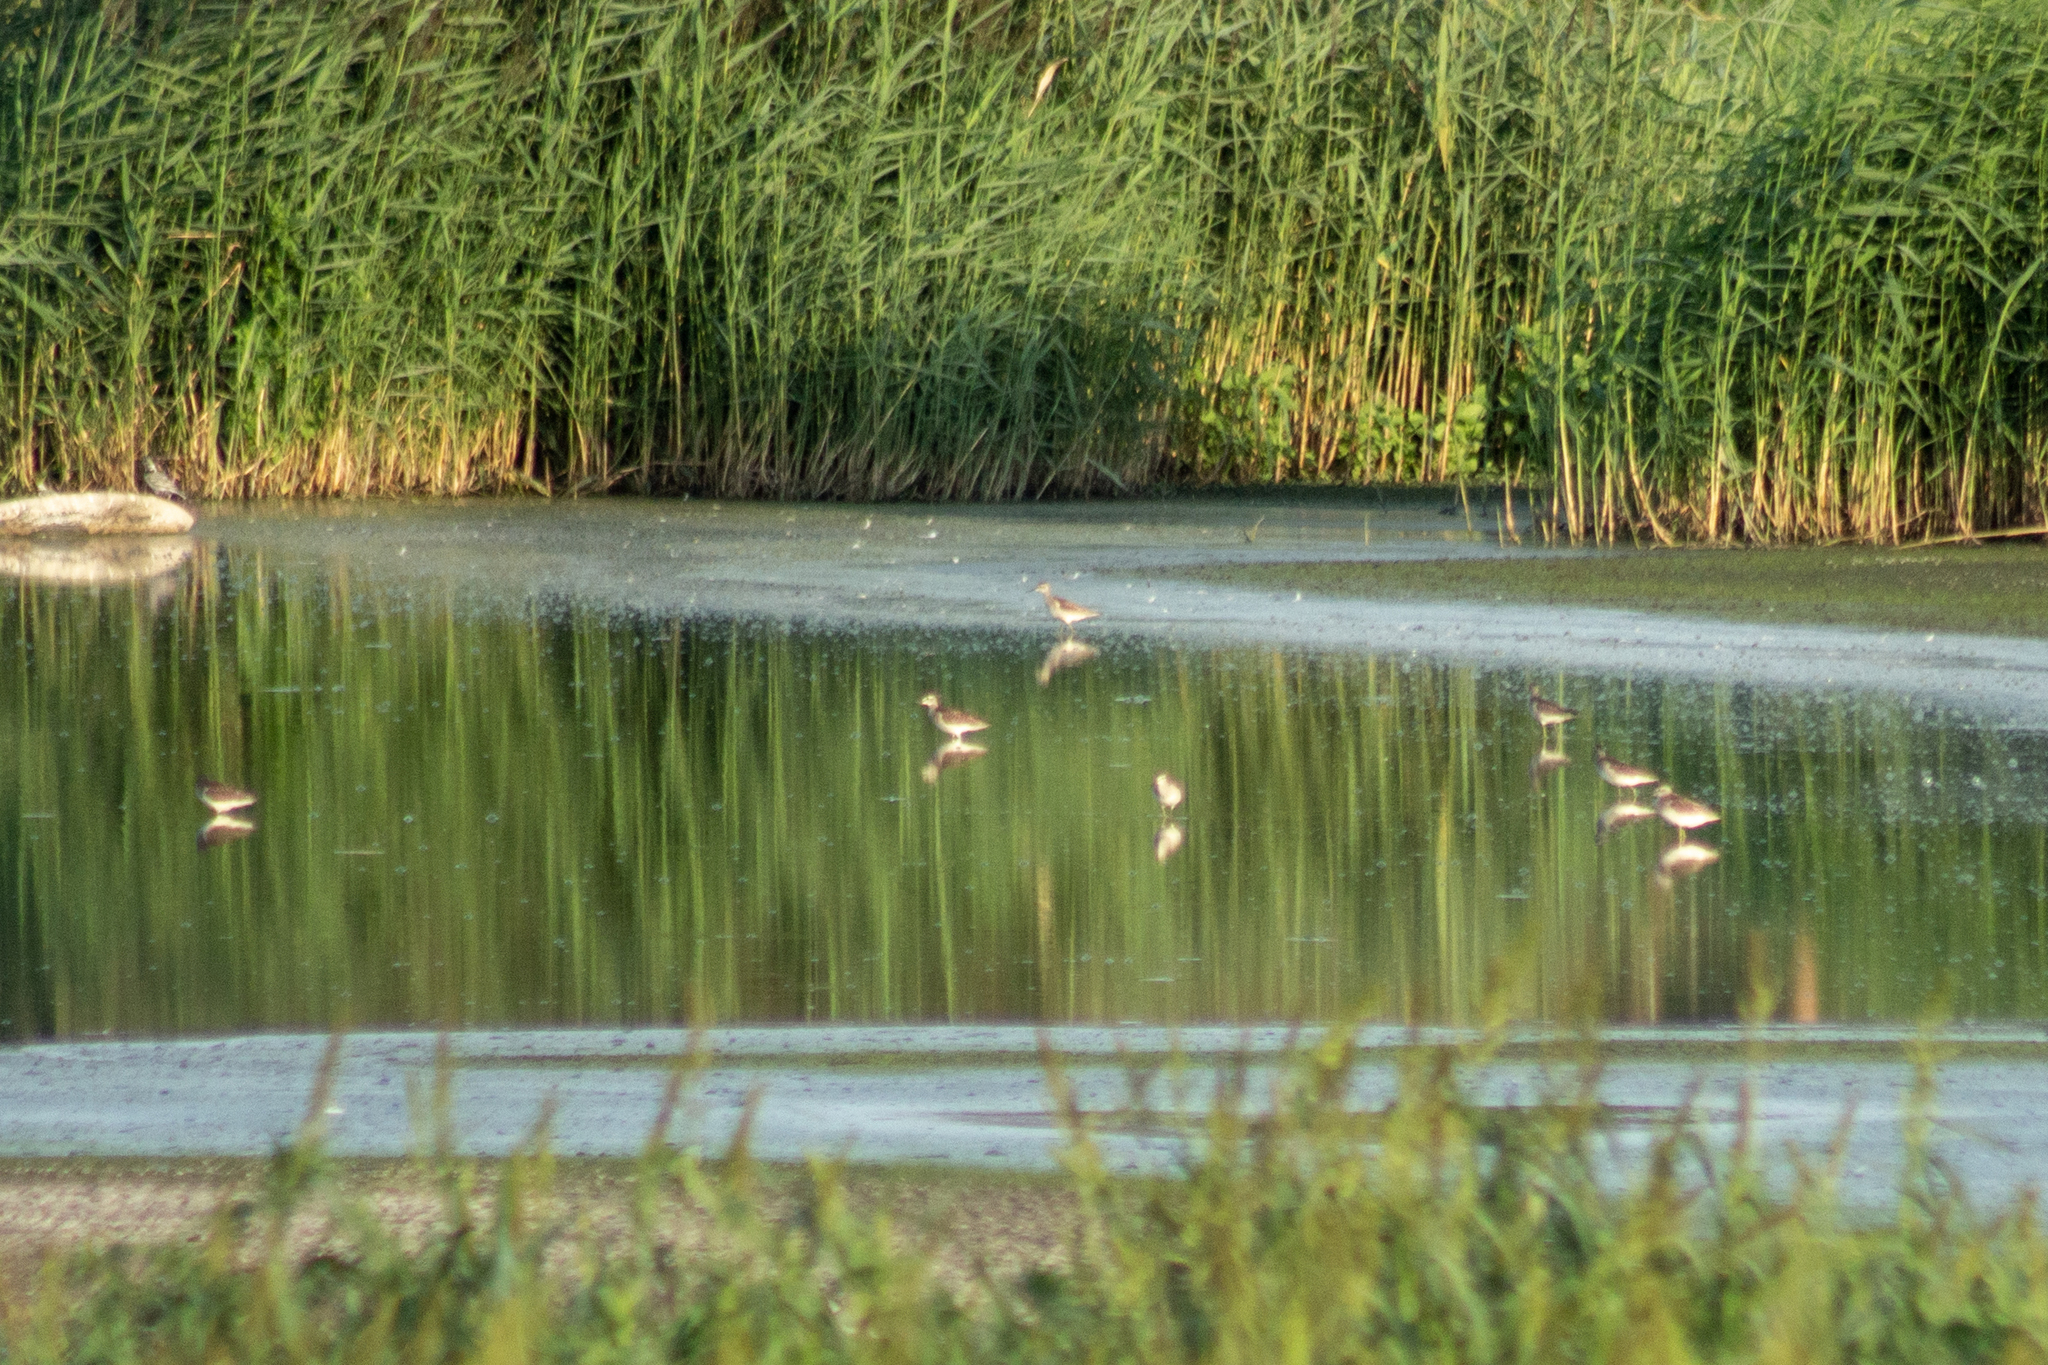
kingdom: Animalia
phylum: Chordata
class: Aves
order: Charadriiformes
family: Scolopacidae
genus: Tringa
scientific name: Tringa glareola
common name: Wood sandpiper
